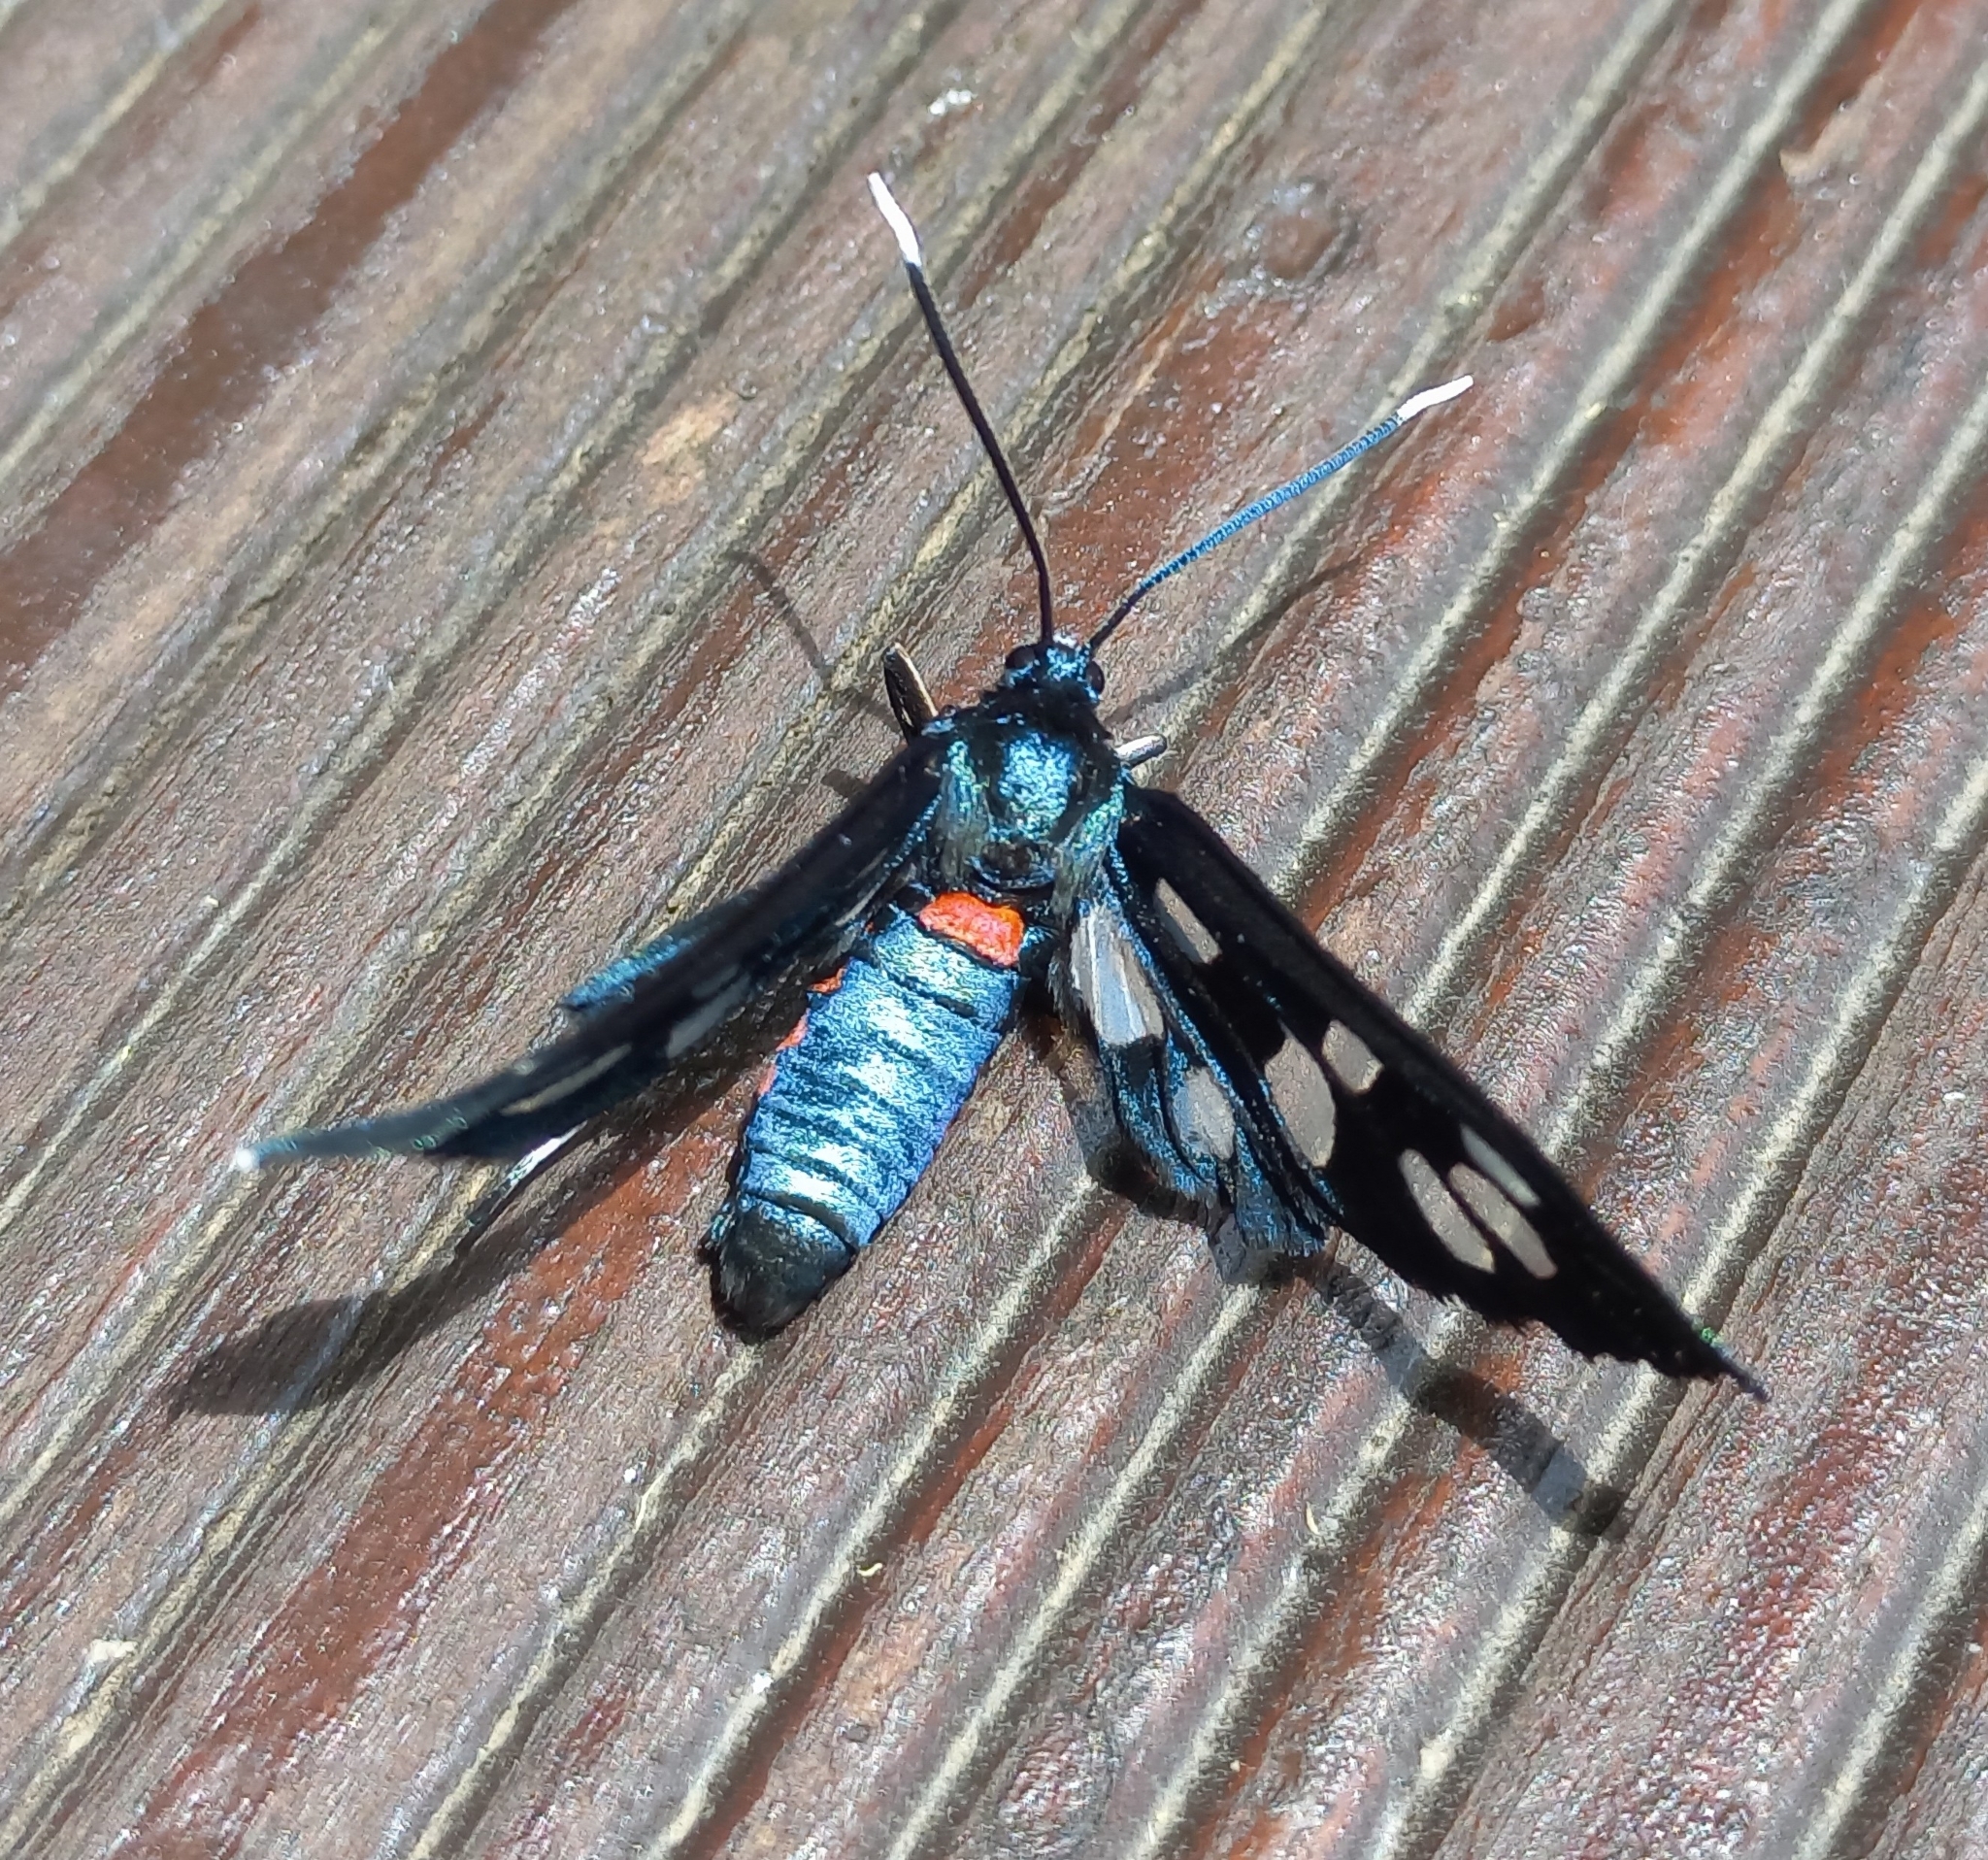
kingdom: Animalia
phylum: Arthropoda
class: Insecta
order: Lepidoptera
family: Erebidae
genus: Amata
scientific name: Amata kuhlweini
